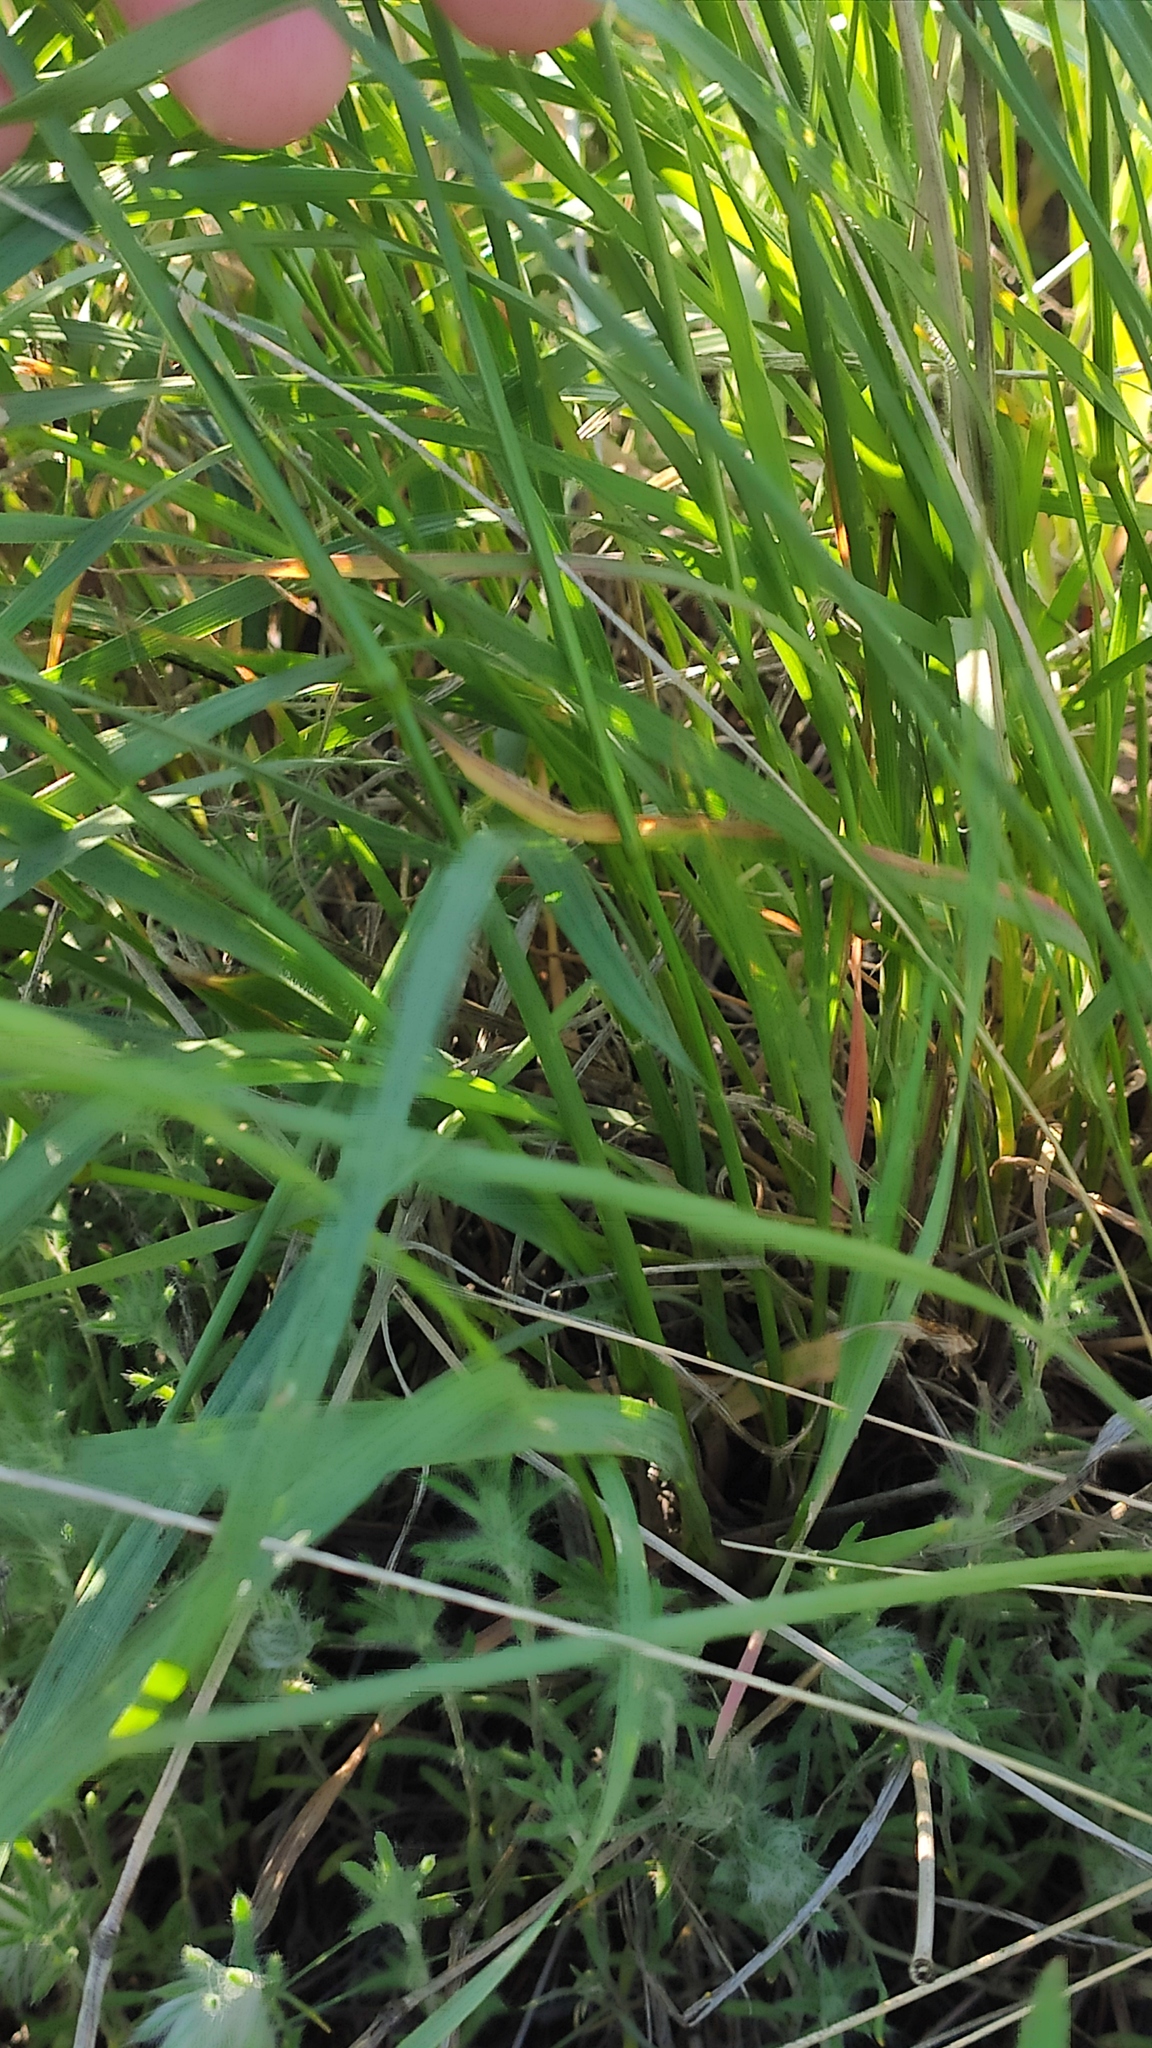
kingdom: Plantae
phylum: Tracheophyta
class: Liliopsida
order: Poales
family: Poaceae
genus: Agropyron
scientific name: Agropyron fragile
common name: Siberian wheatgrass
